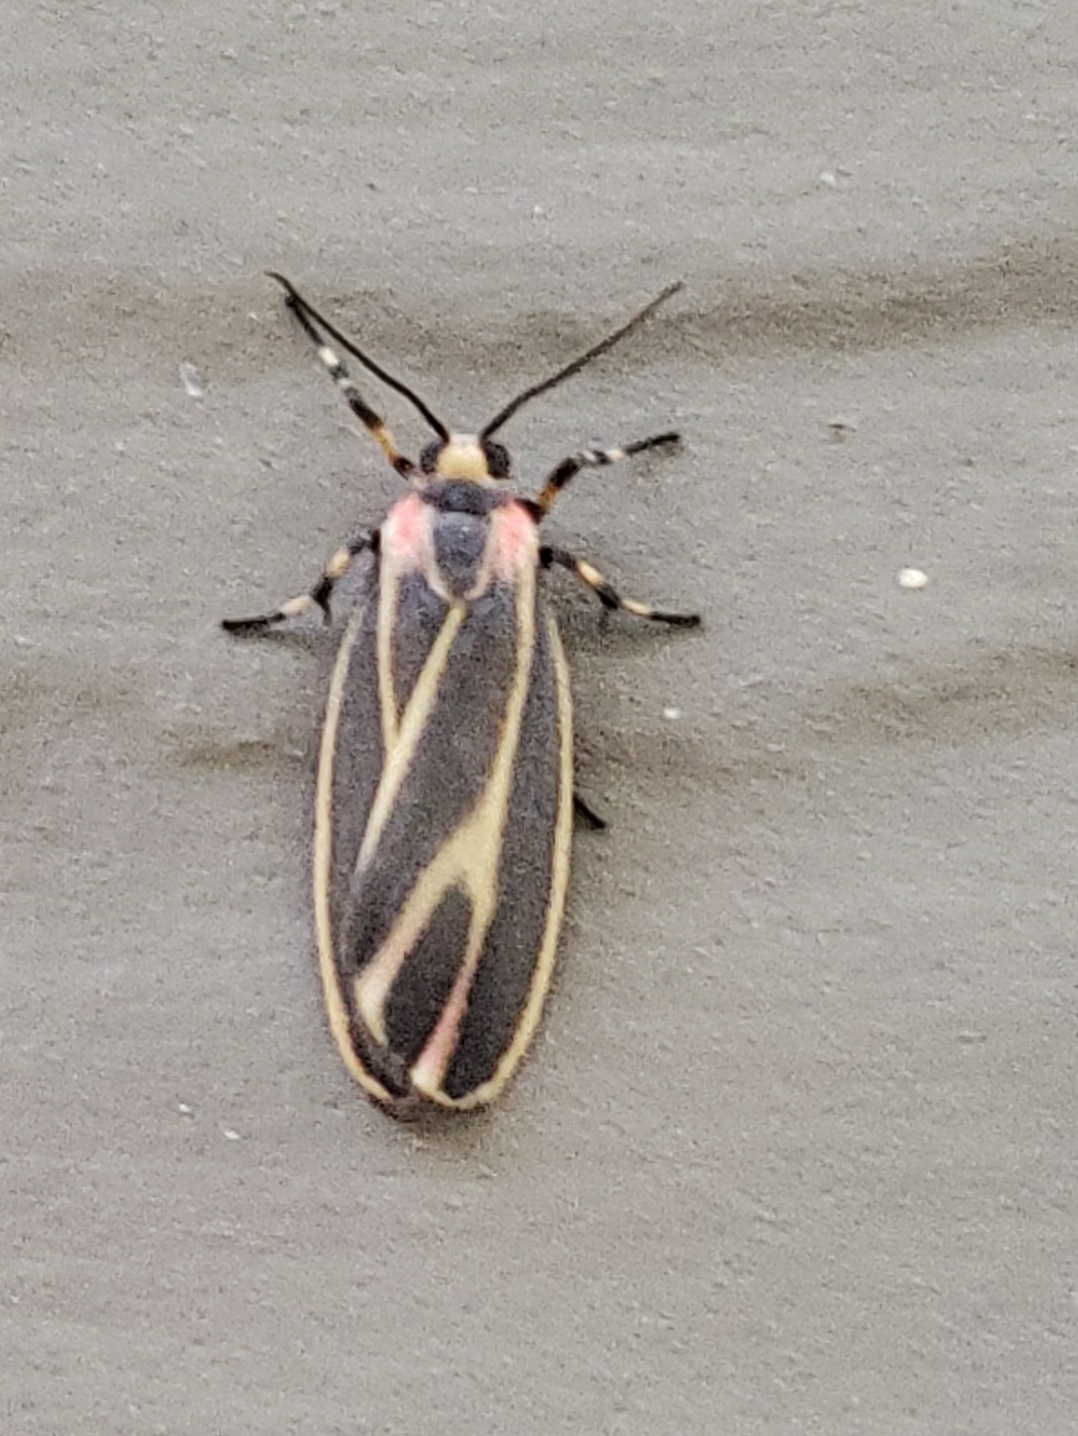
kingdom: Animalia
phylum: Arthropoda
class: Insecta
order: Lepidoptera
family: Erebidae
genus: Hypoprepia
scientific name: Hypoprepia fucosa
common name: Painted lichen moth
